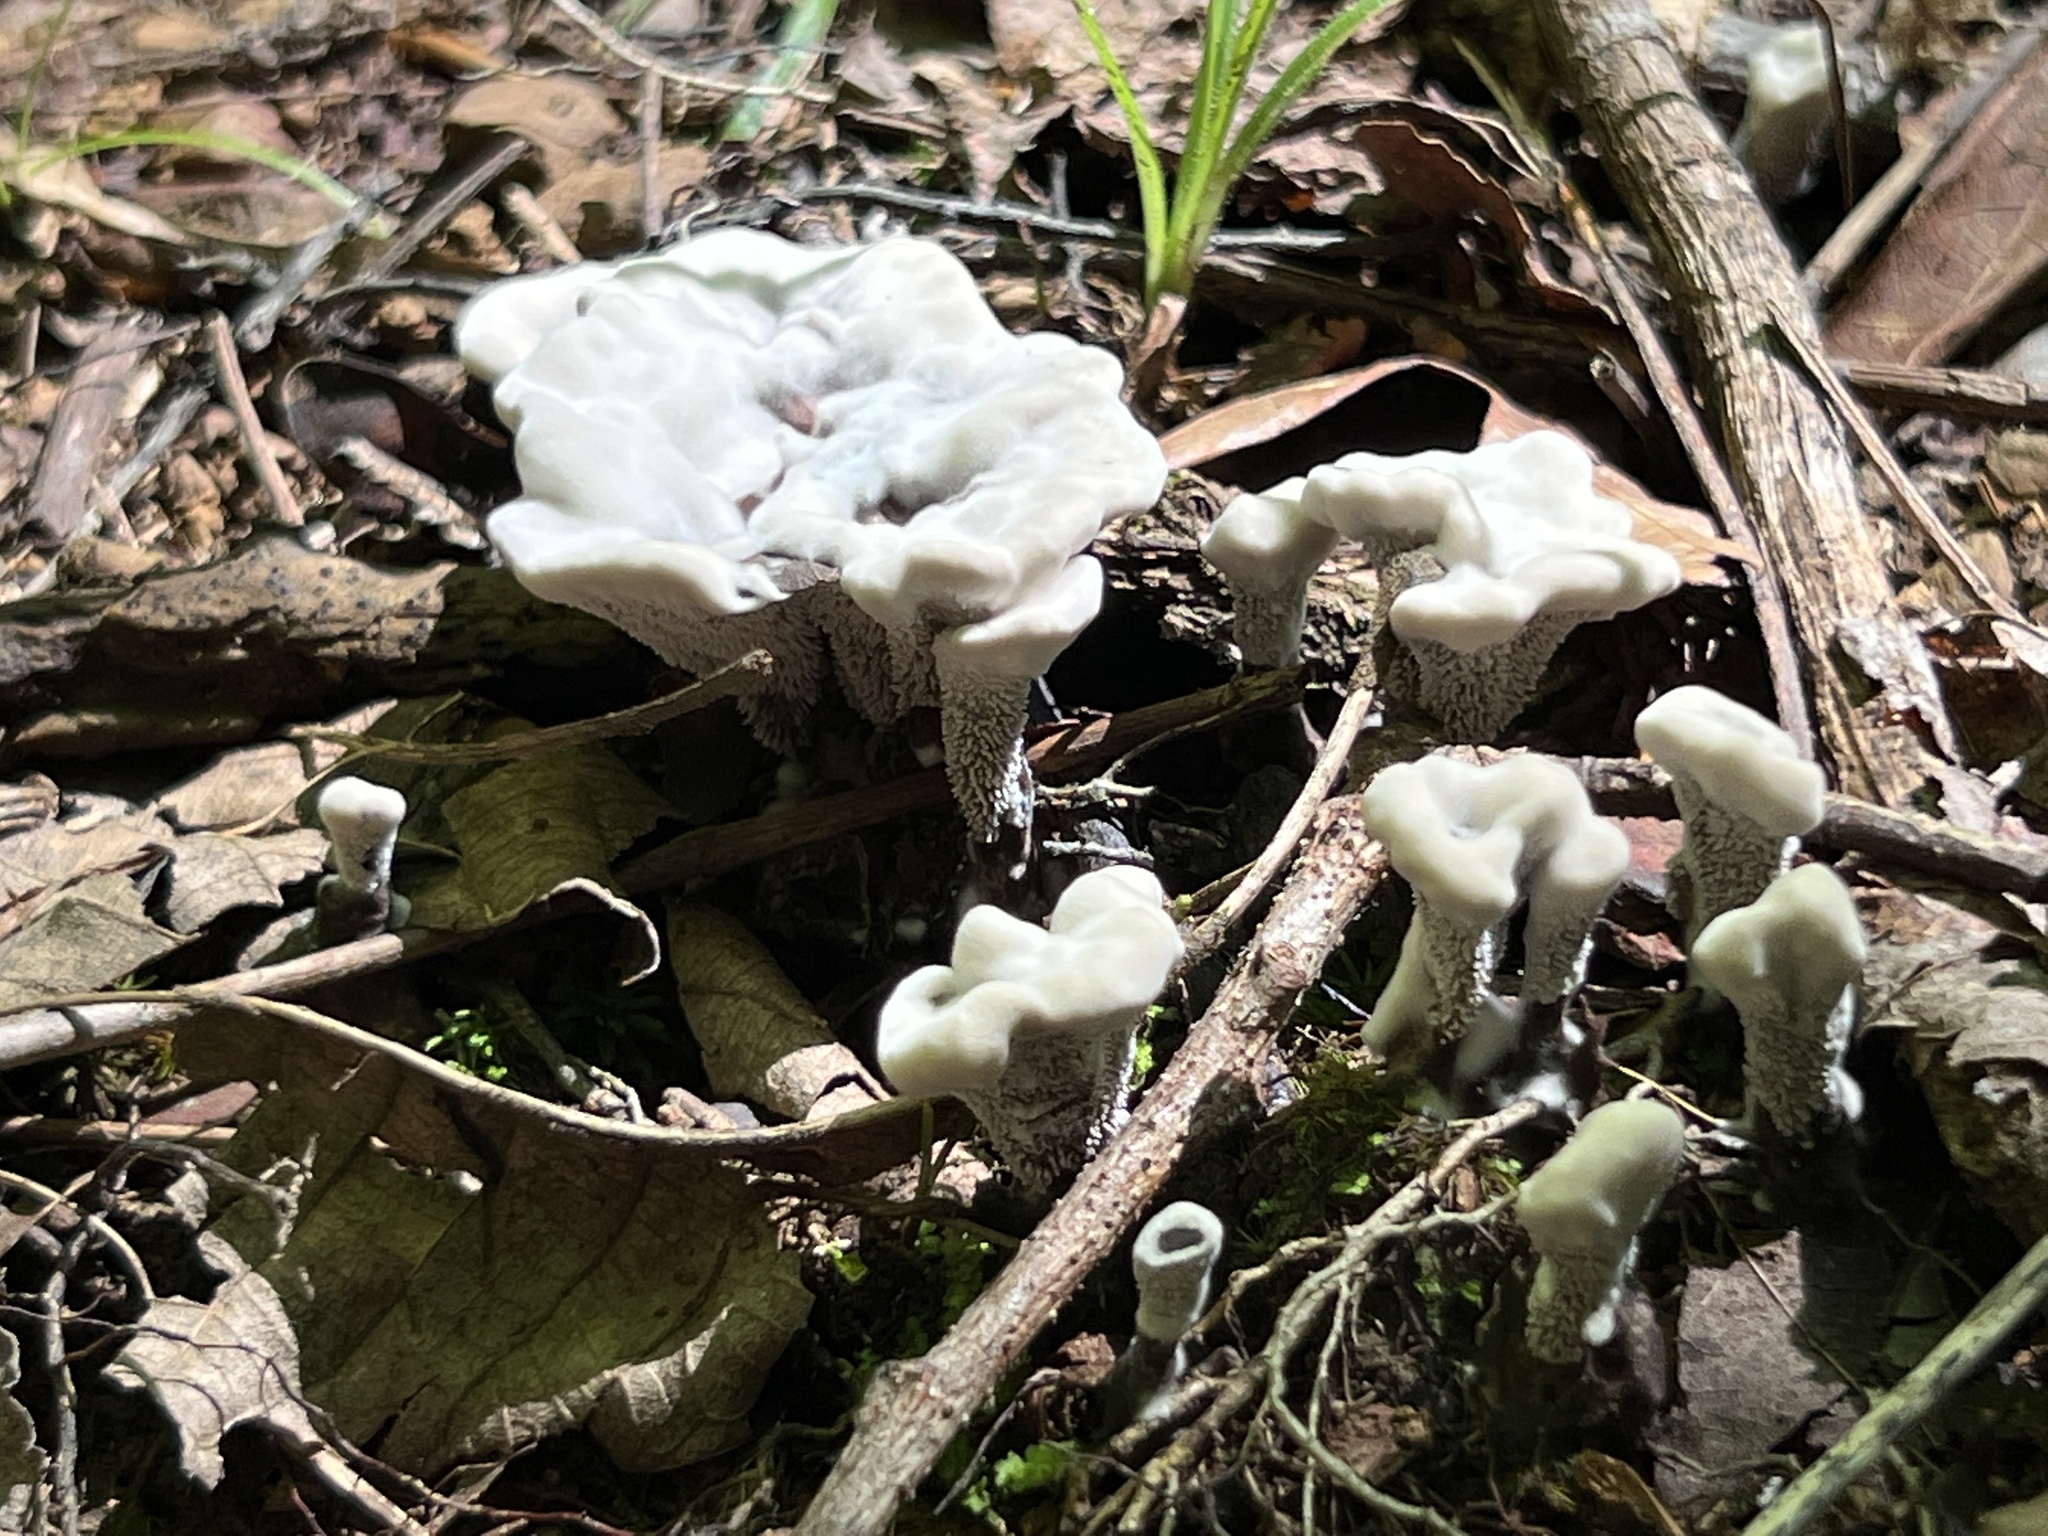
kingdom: Fungi
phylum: Basidiomycota
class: Agaricomycetes
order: Thelephorales
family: Thelephoraceae
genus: Phellodon
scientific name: Phellodon confluens
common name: Fused tooth
